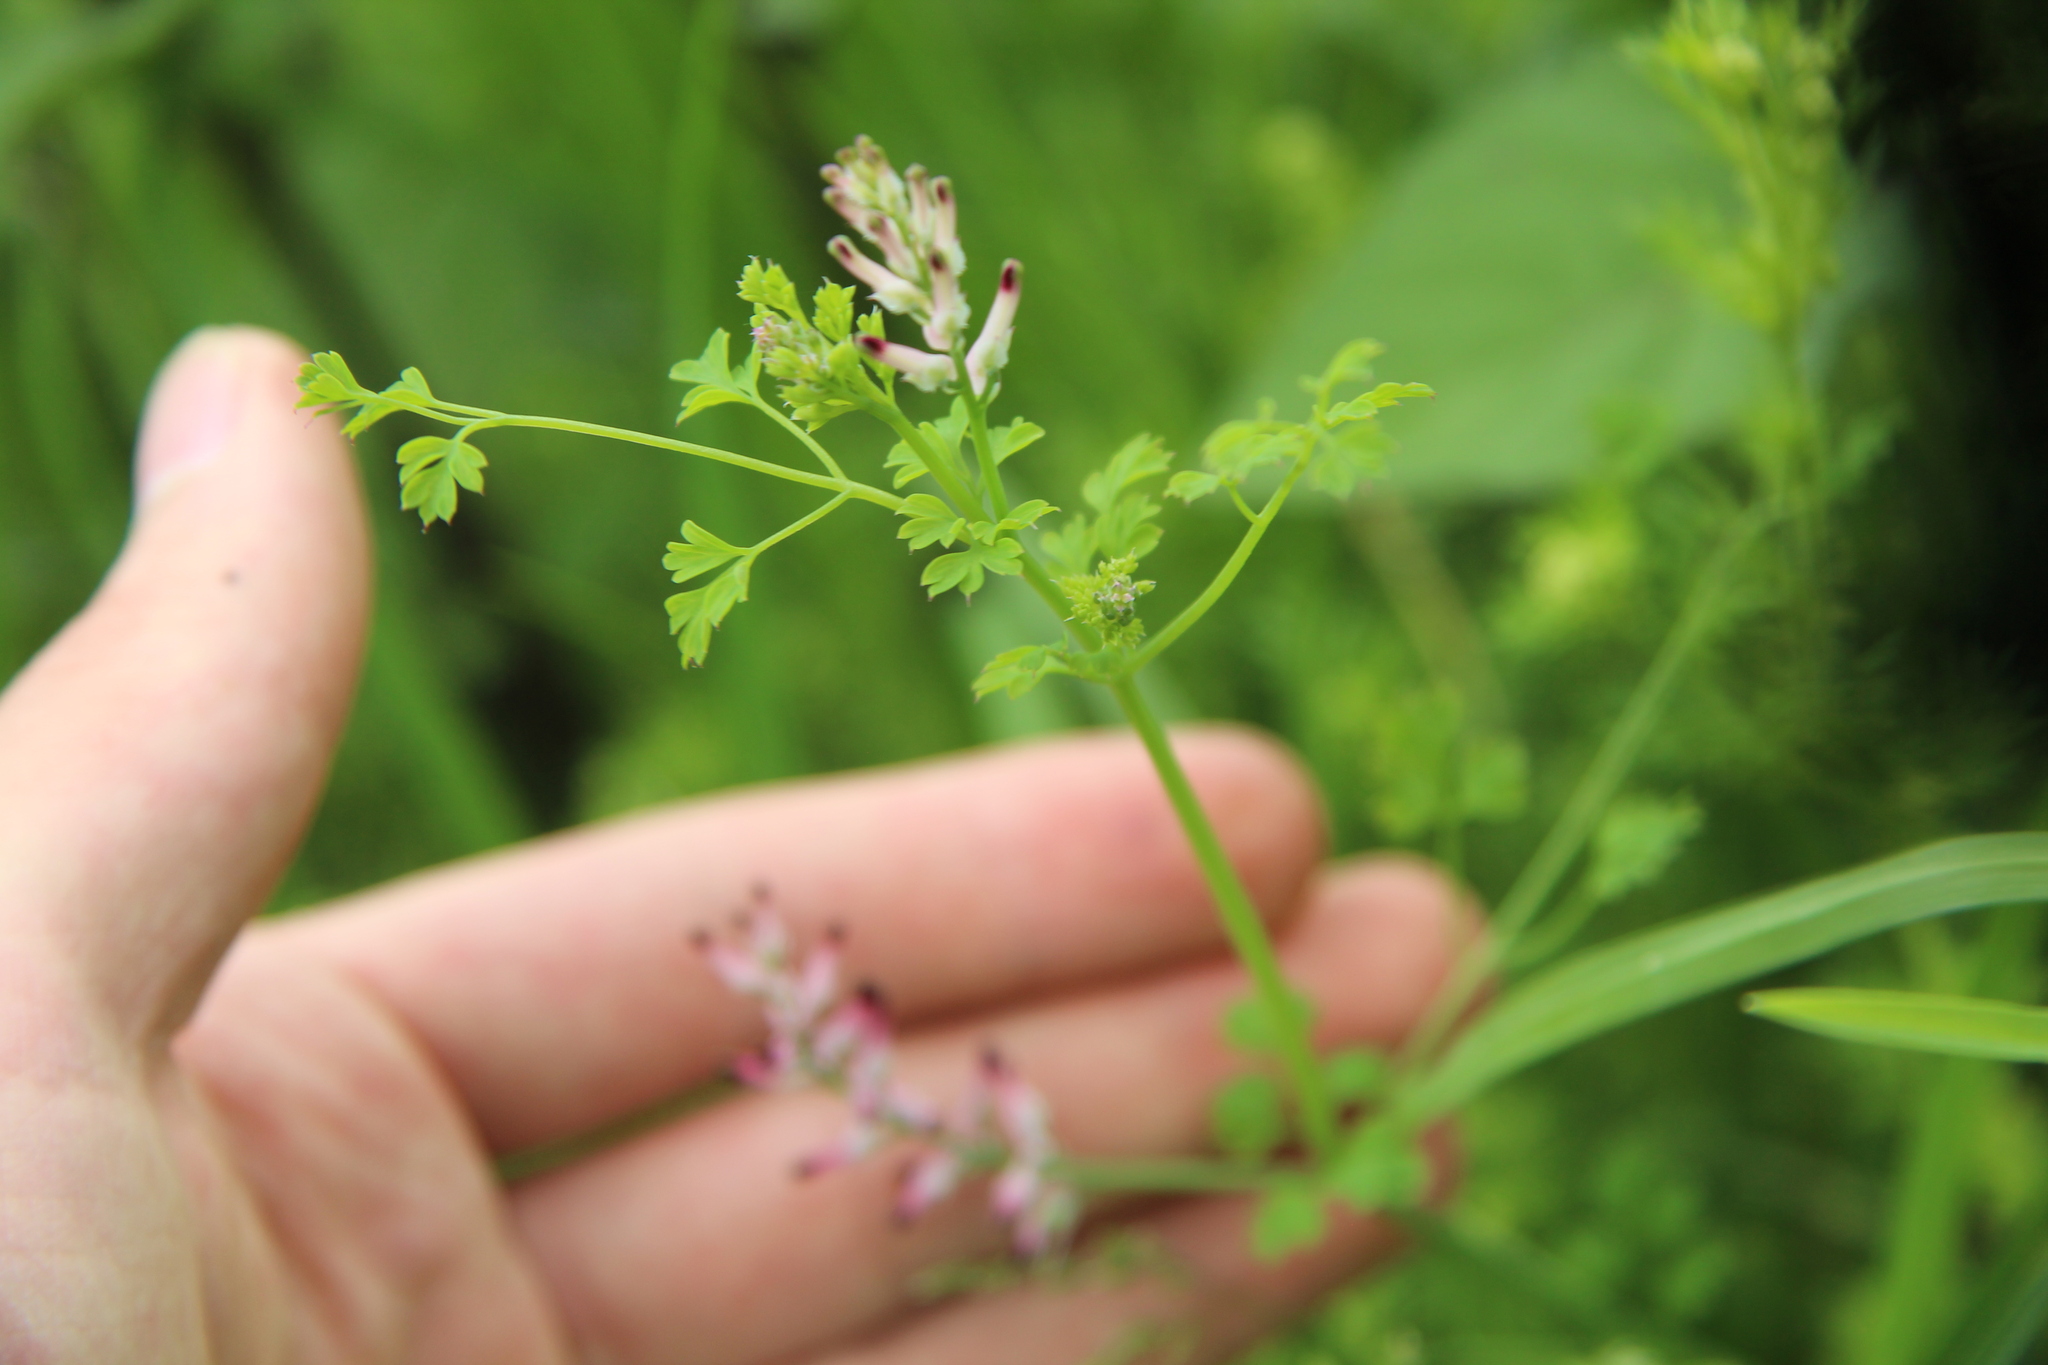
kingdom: Plantae
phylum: Tracheophyta
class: Magnoliopsida
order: Ranunculales
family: Papaveraceae
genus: Fumaria
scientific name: Fumaria muralis
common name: Common ramping-fumitory
